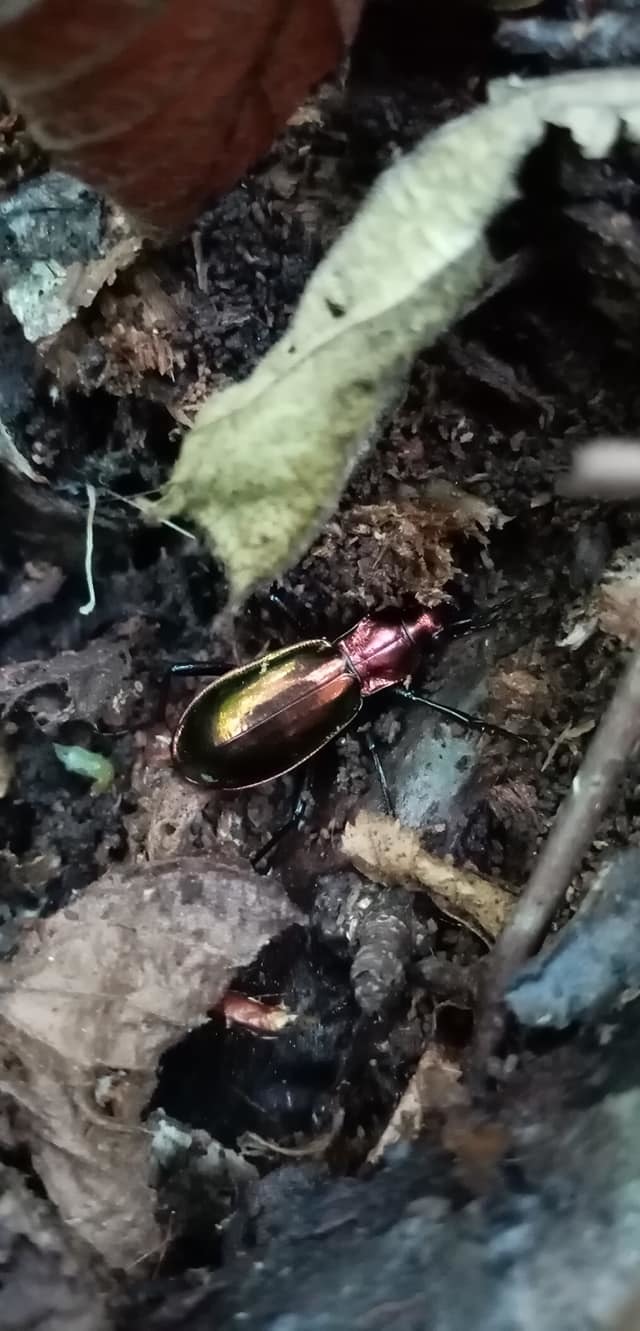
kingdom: Animalia
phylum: Arthropoda
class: Insecta
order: Coleoptera
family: Carabidae
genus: Carabus
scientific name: Carabus splendens
